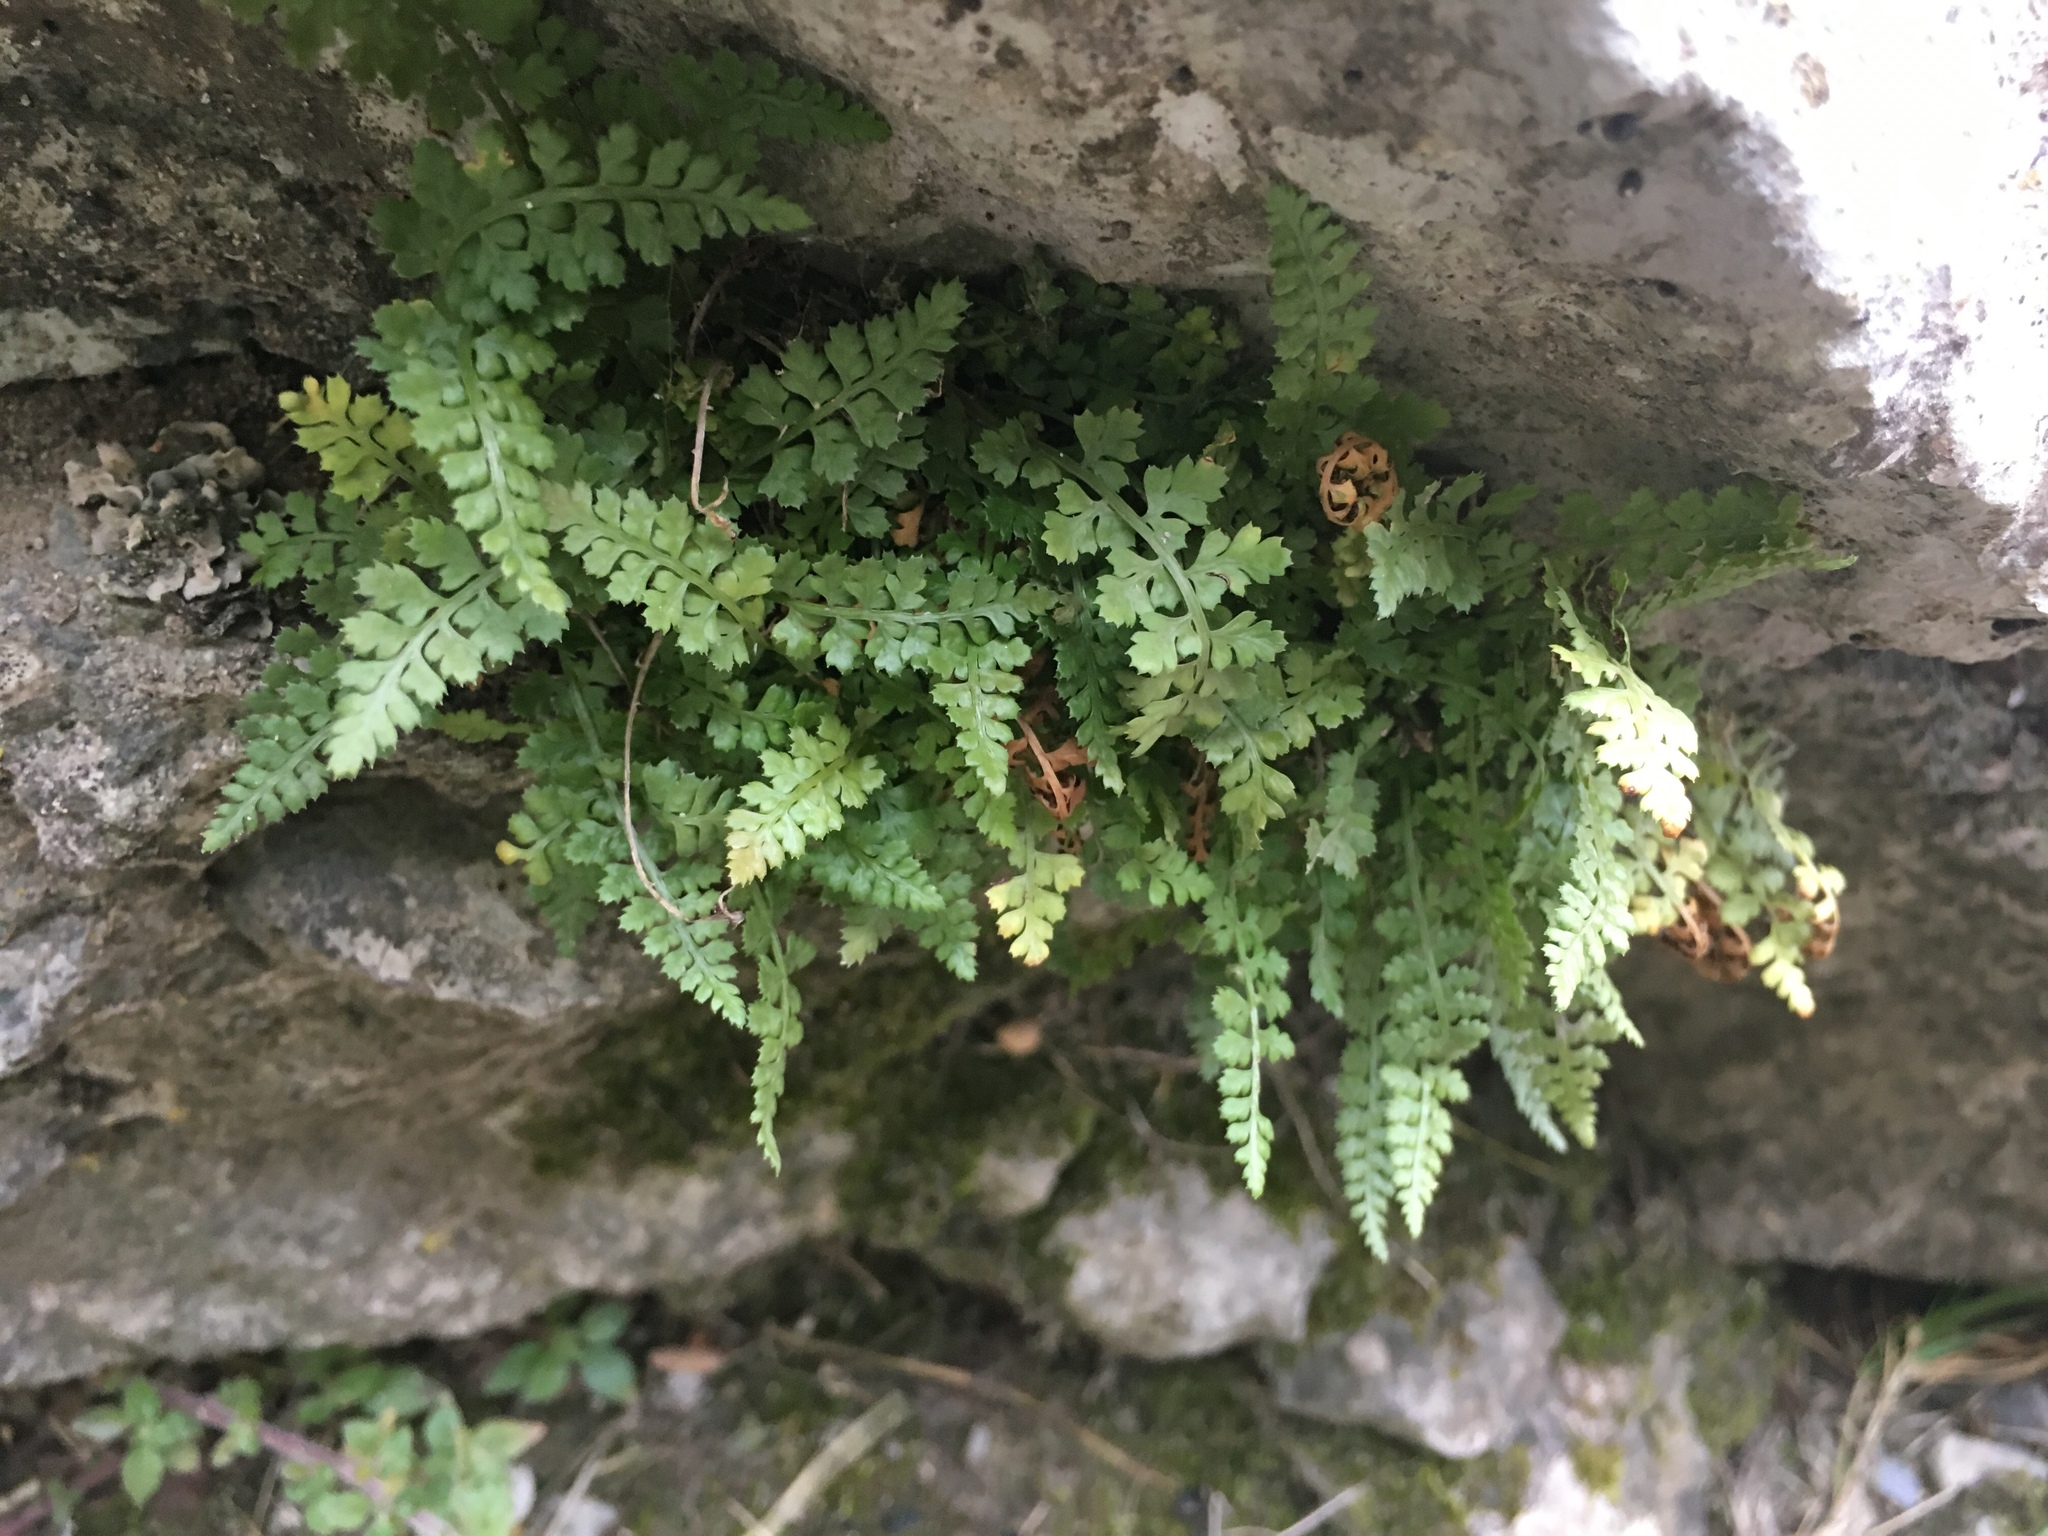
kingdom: Plantae
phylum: Tracheophyta
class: Polypodiopsida
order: Polypodiales
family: Aspleniaceae
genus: Asplenium
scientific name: Asplenium fontanum
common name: Fountain spleenwort
